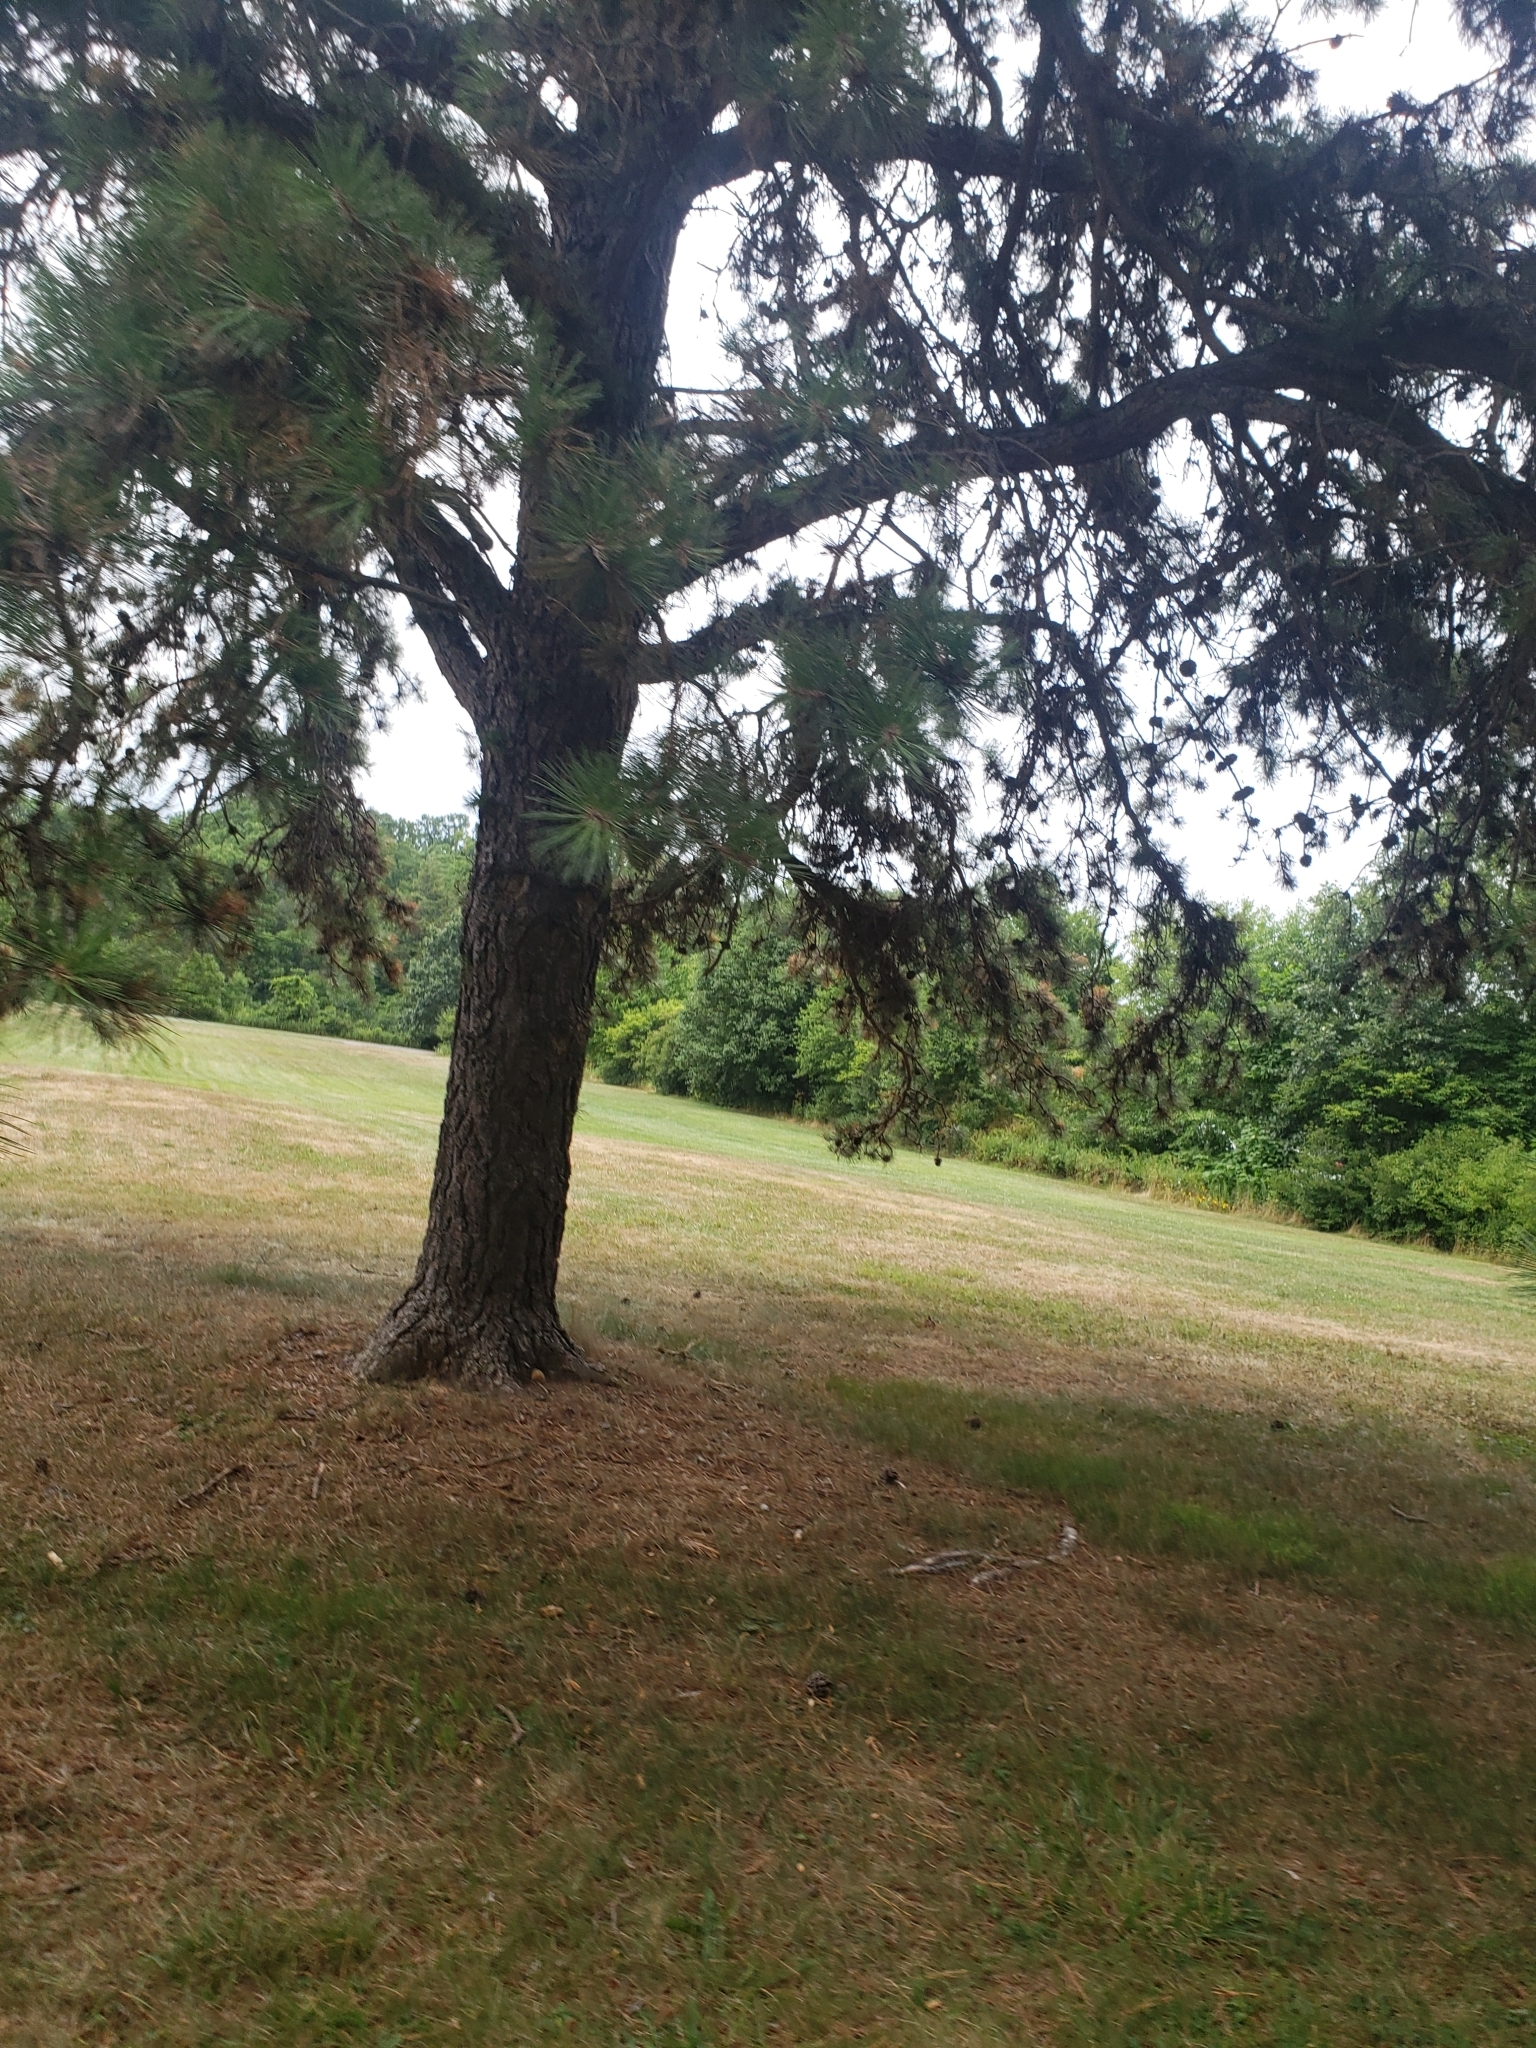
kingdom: Plantae
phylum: Tracheophyta
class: Pinopsida
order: Pinales
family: Pinaceae
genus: Pinus
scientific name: Pinus rigida
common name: Pitch pine
